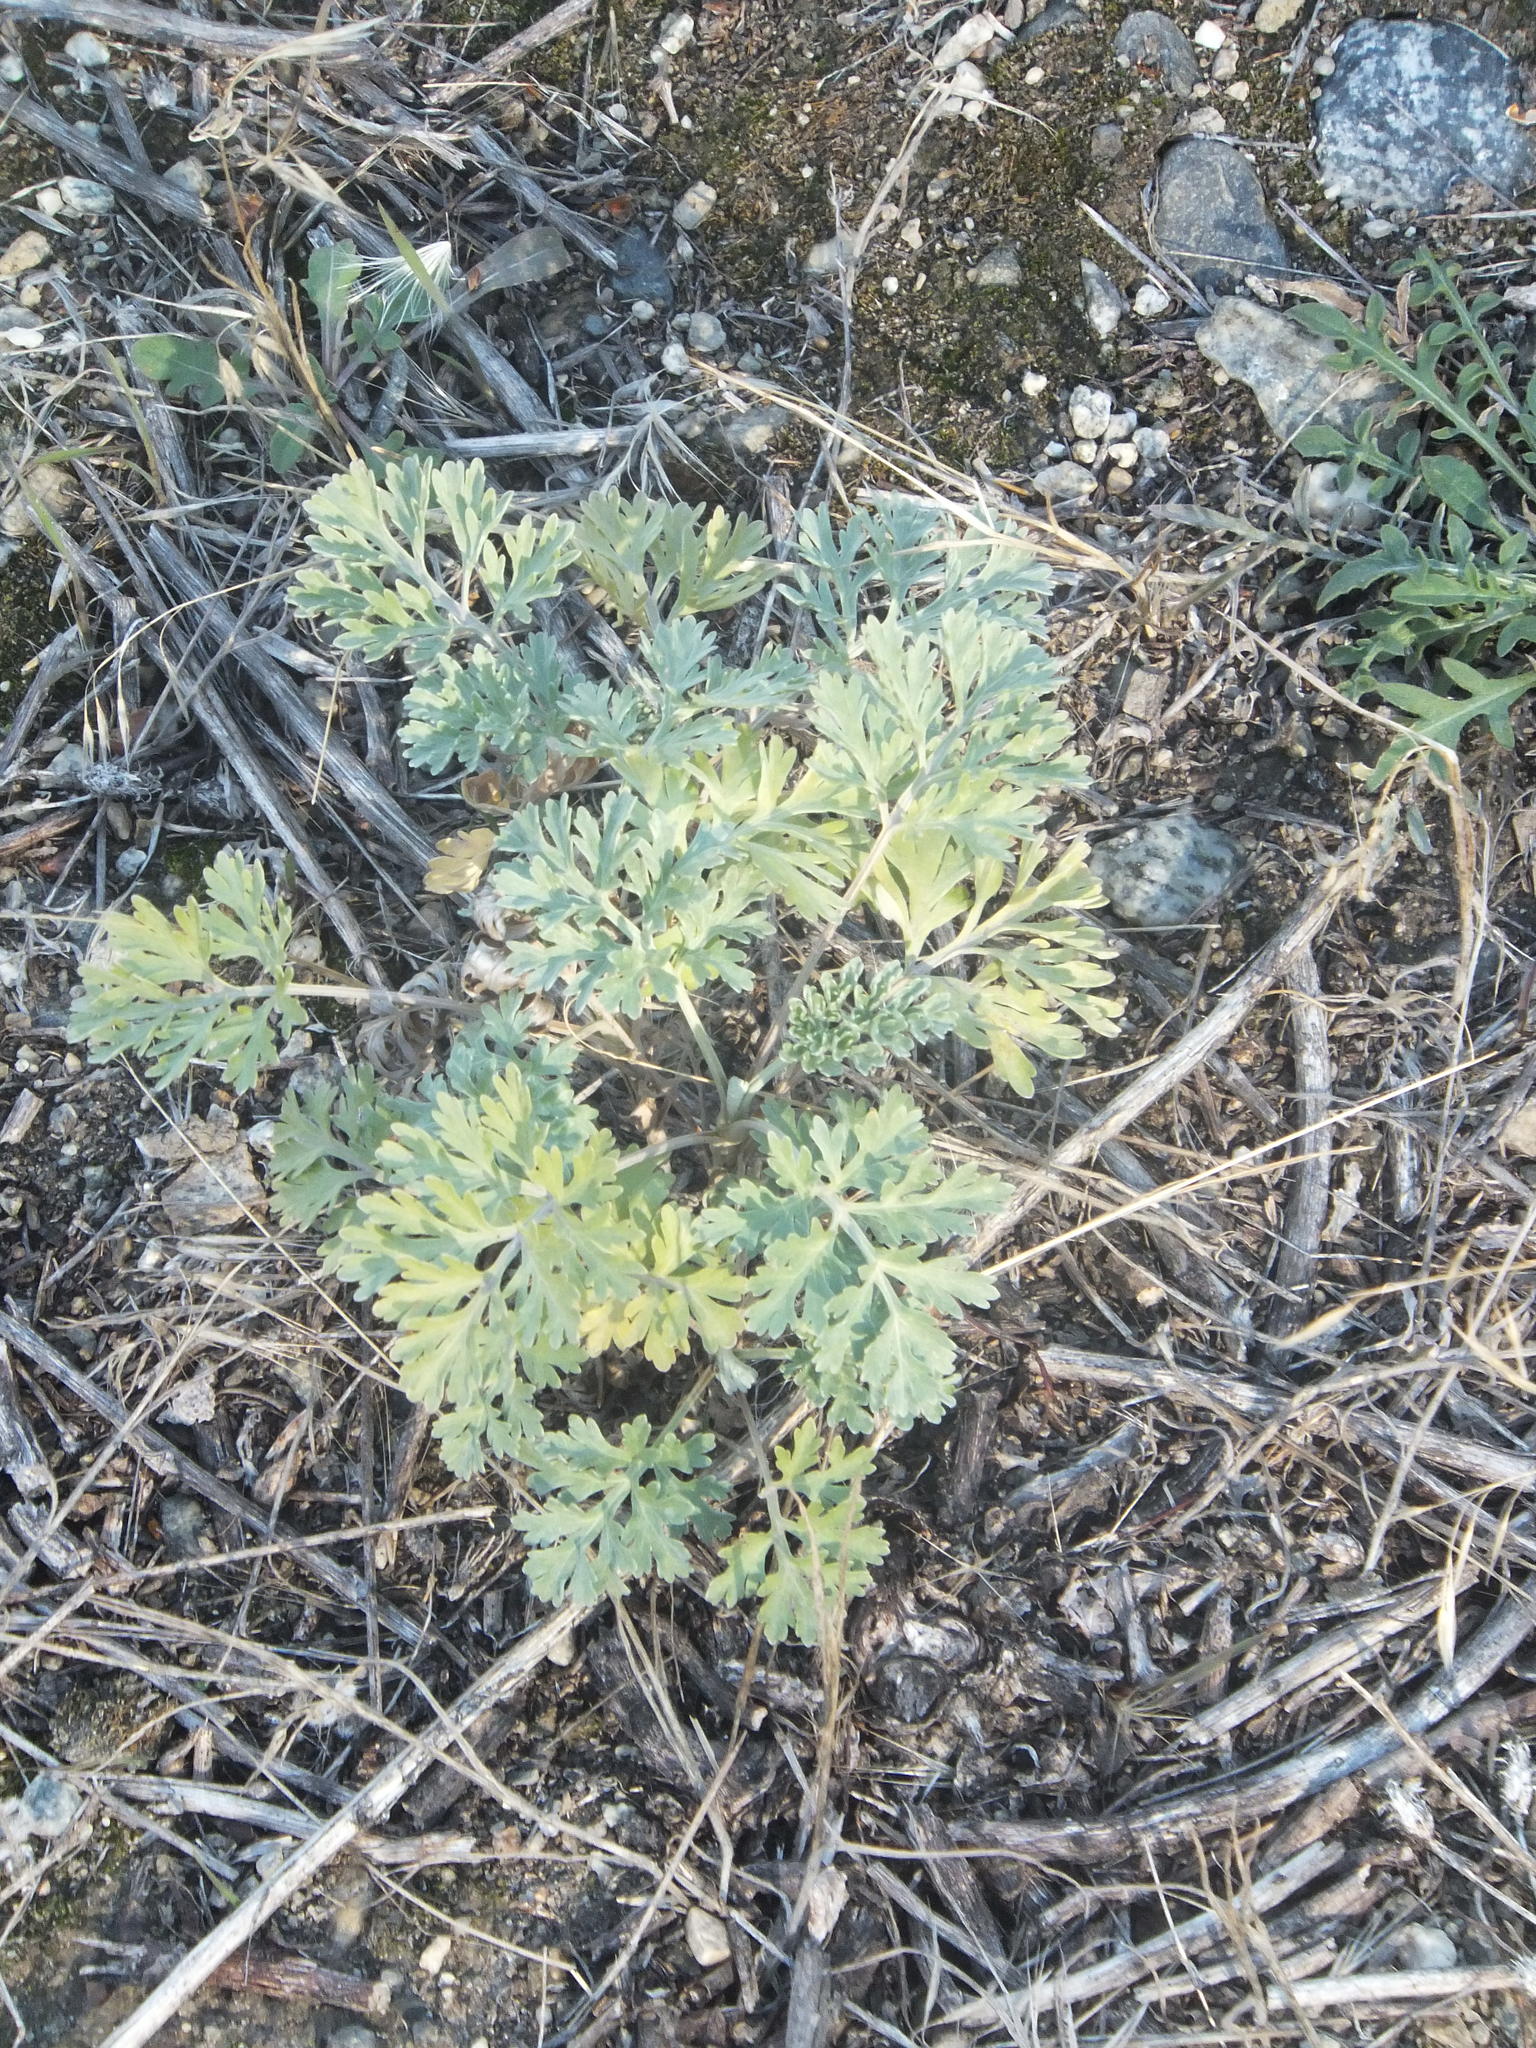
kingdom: Plantae
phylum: Tracheophyta
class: Magnoliopsida
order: Asterales
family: Asteraceae
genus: Artemisia
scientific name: Artemisia absinthium
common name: Wormwood
